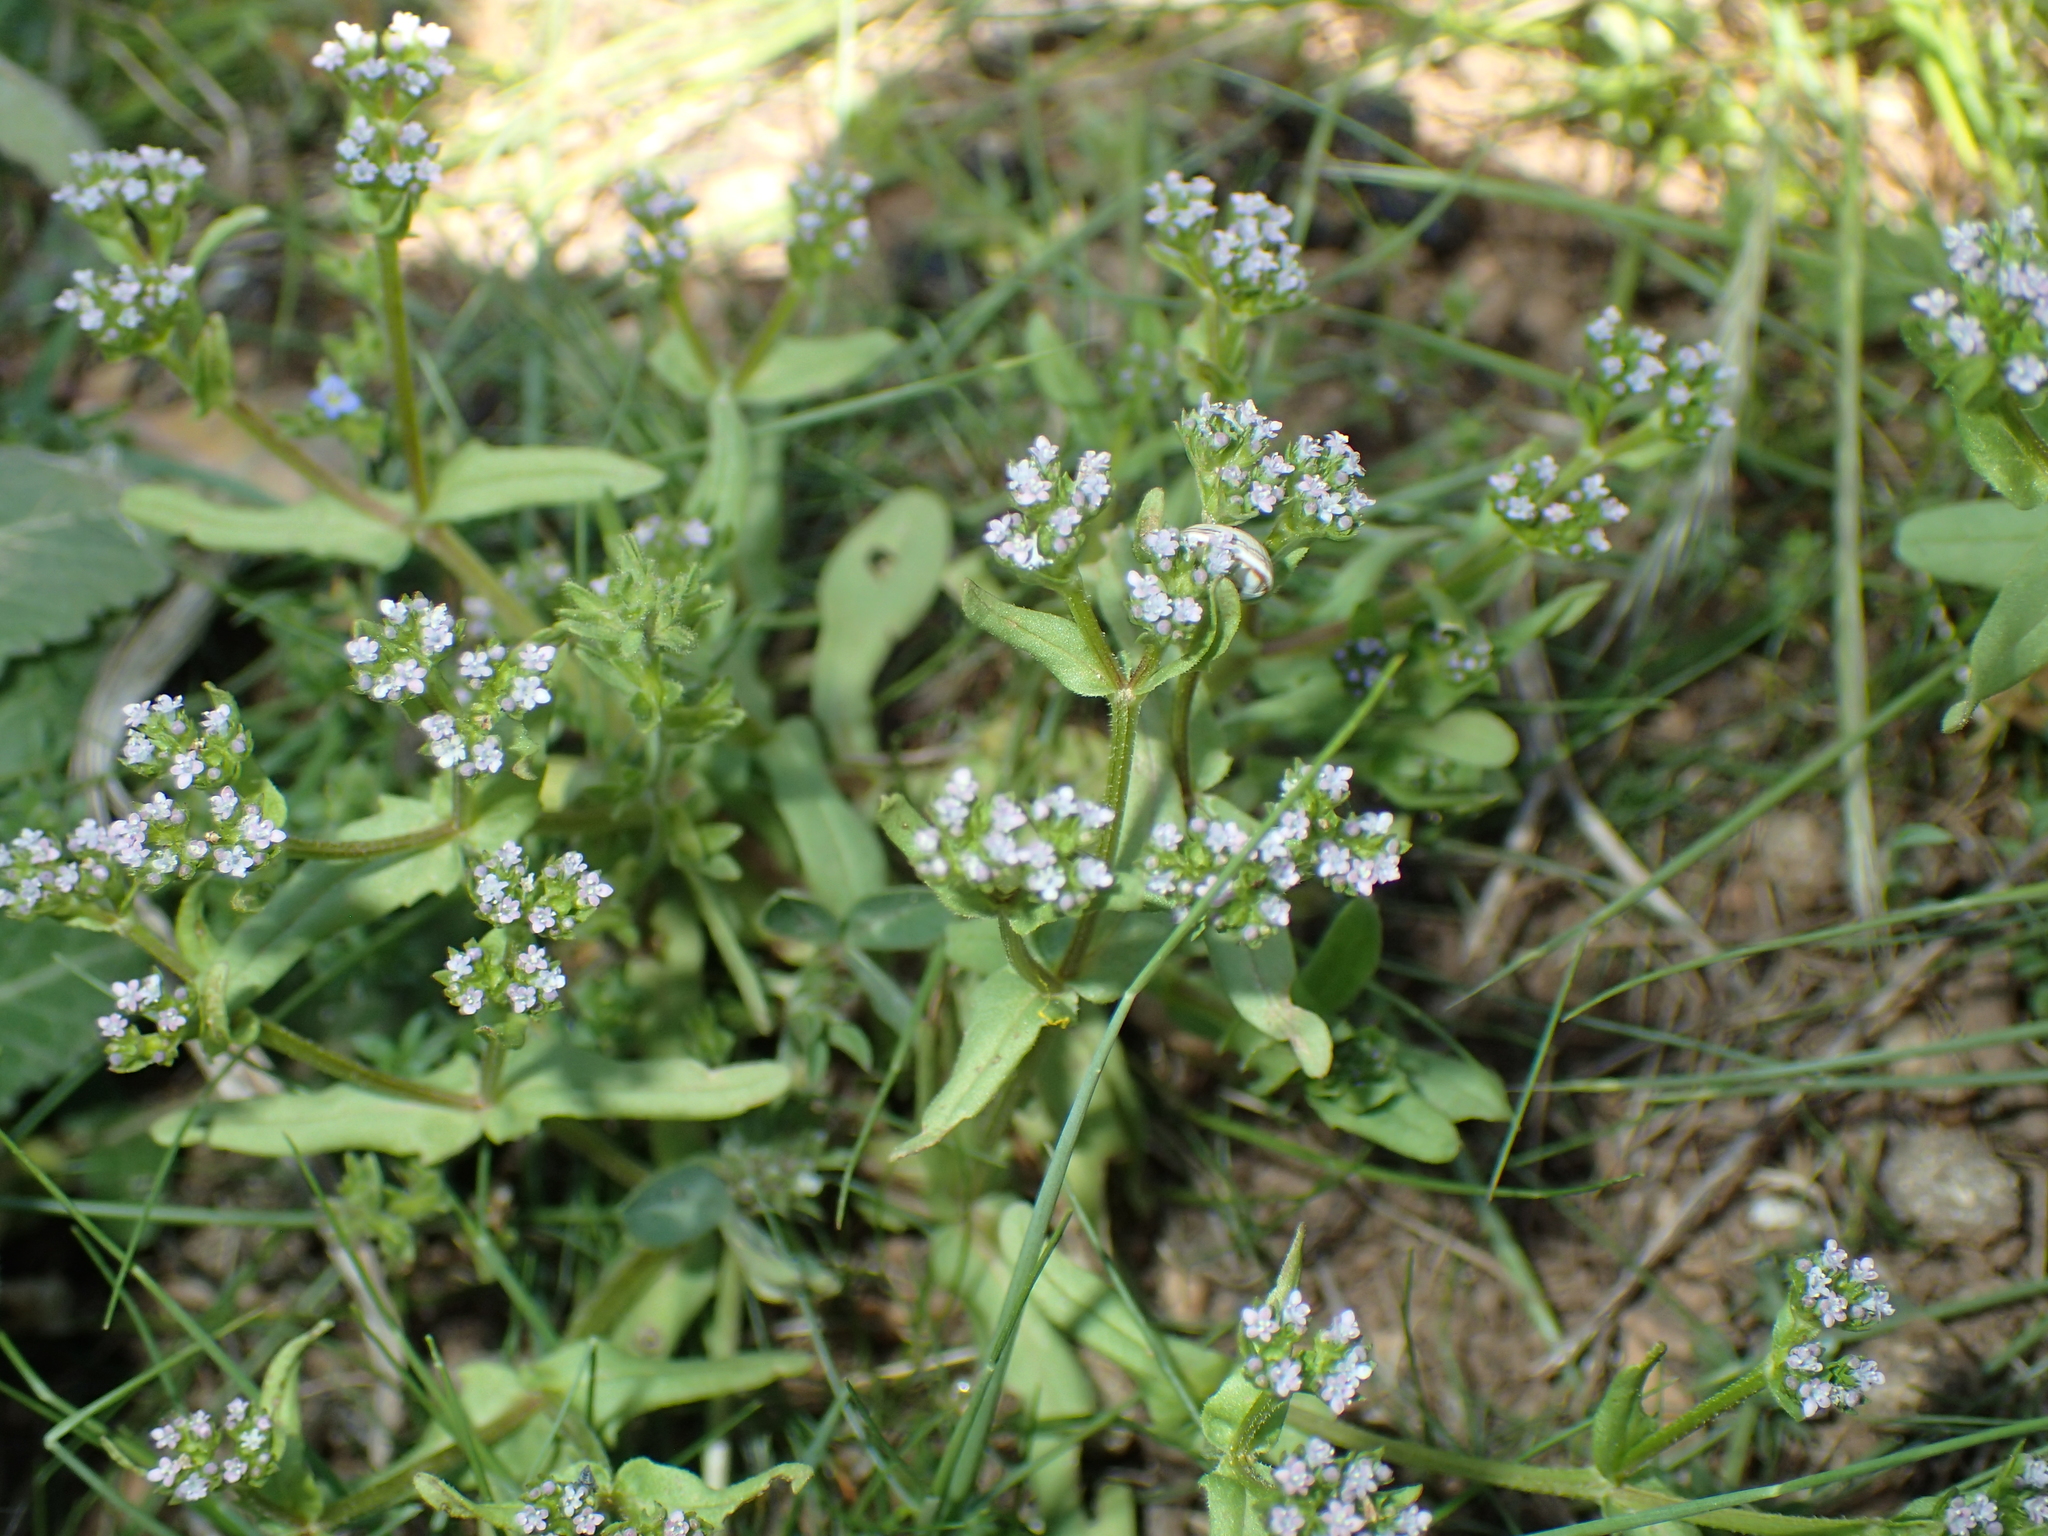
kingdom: Plantae
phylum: Tracheophyta
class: Magnoliopsida
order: Dipsacales
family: Caprifoliaceae
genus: Valerianella
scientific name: Valerianella locusta
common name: Common cornsalad
